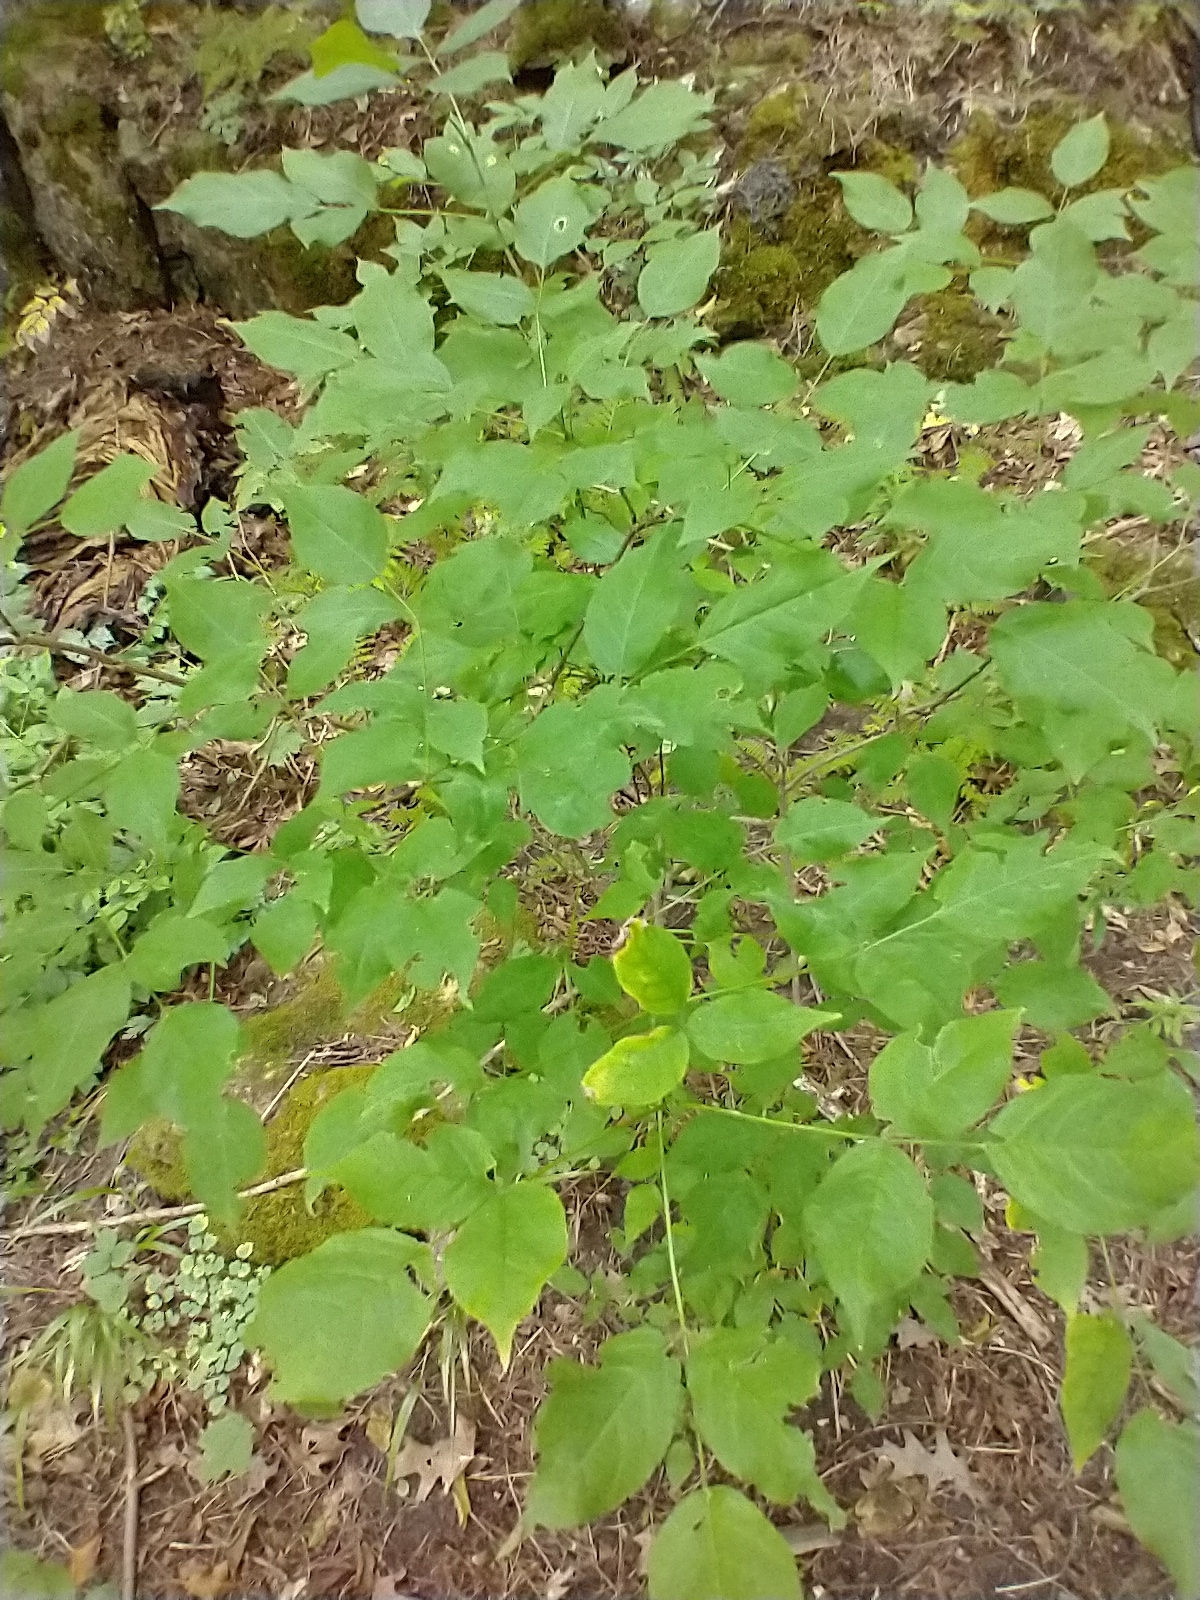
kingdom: Plantae
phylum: Tracheophyta
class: Magnoliopsida
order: Crossosomatales
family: Staphyleaceae
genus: Staphylea
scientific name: Staphylea trifolia
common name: American bladdernut
